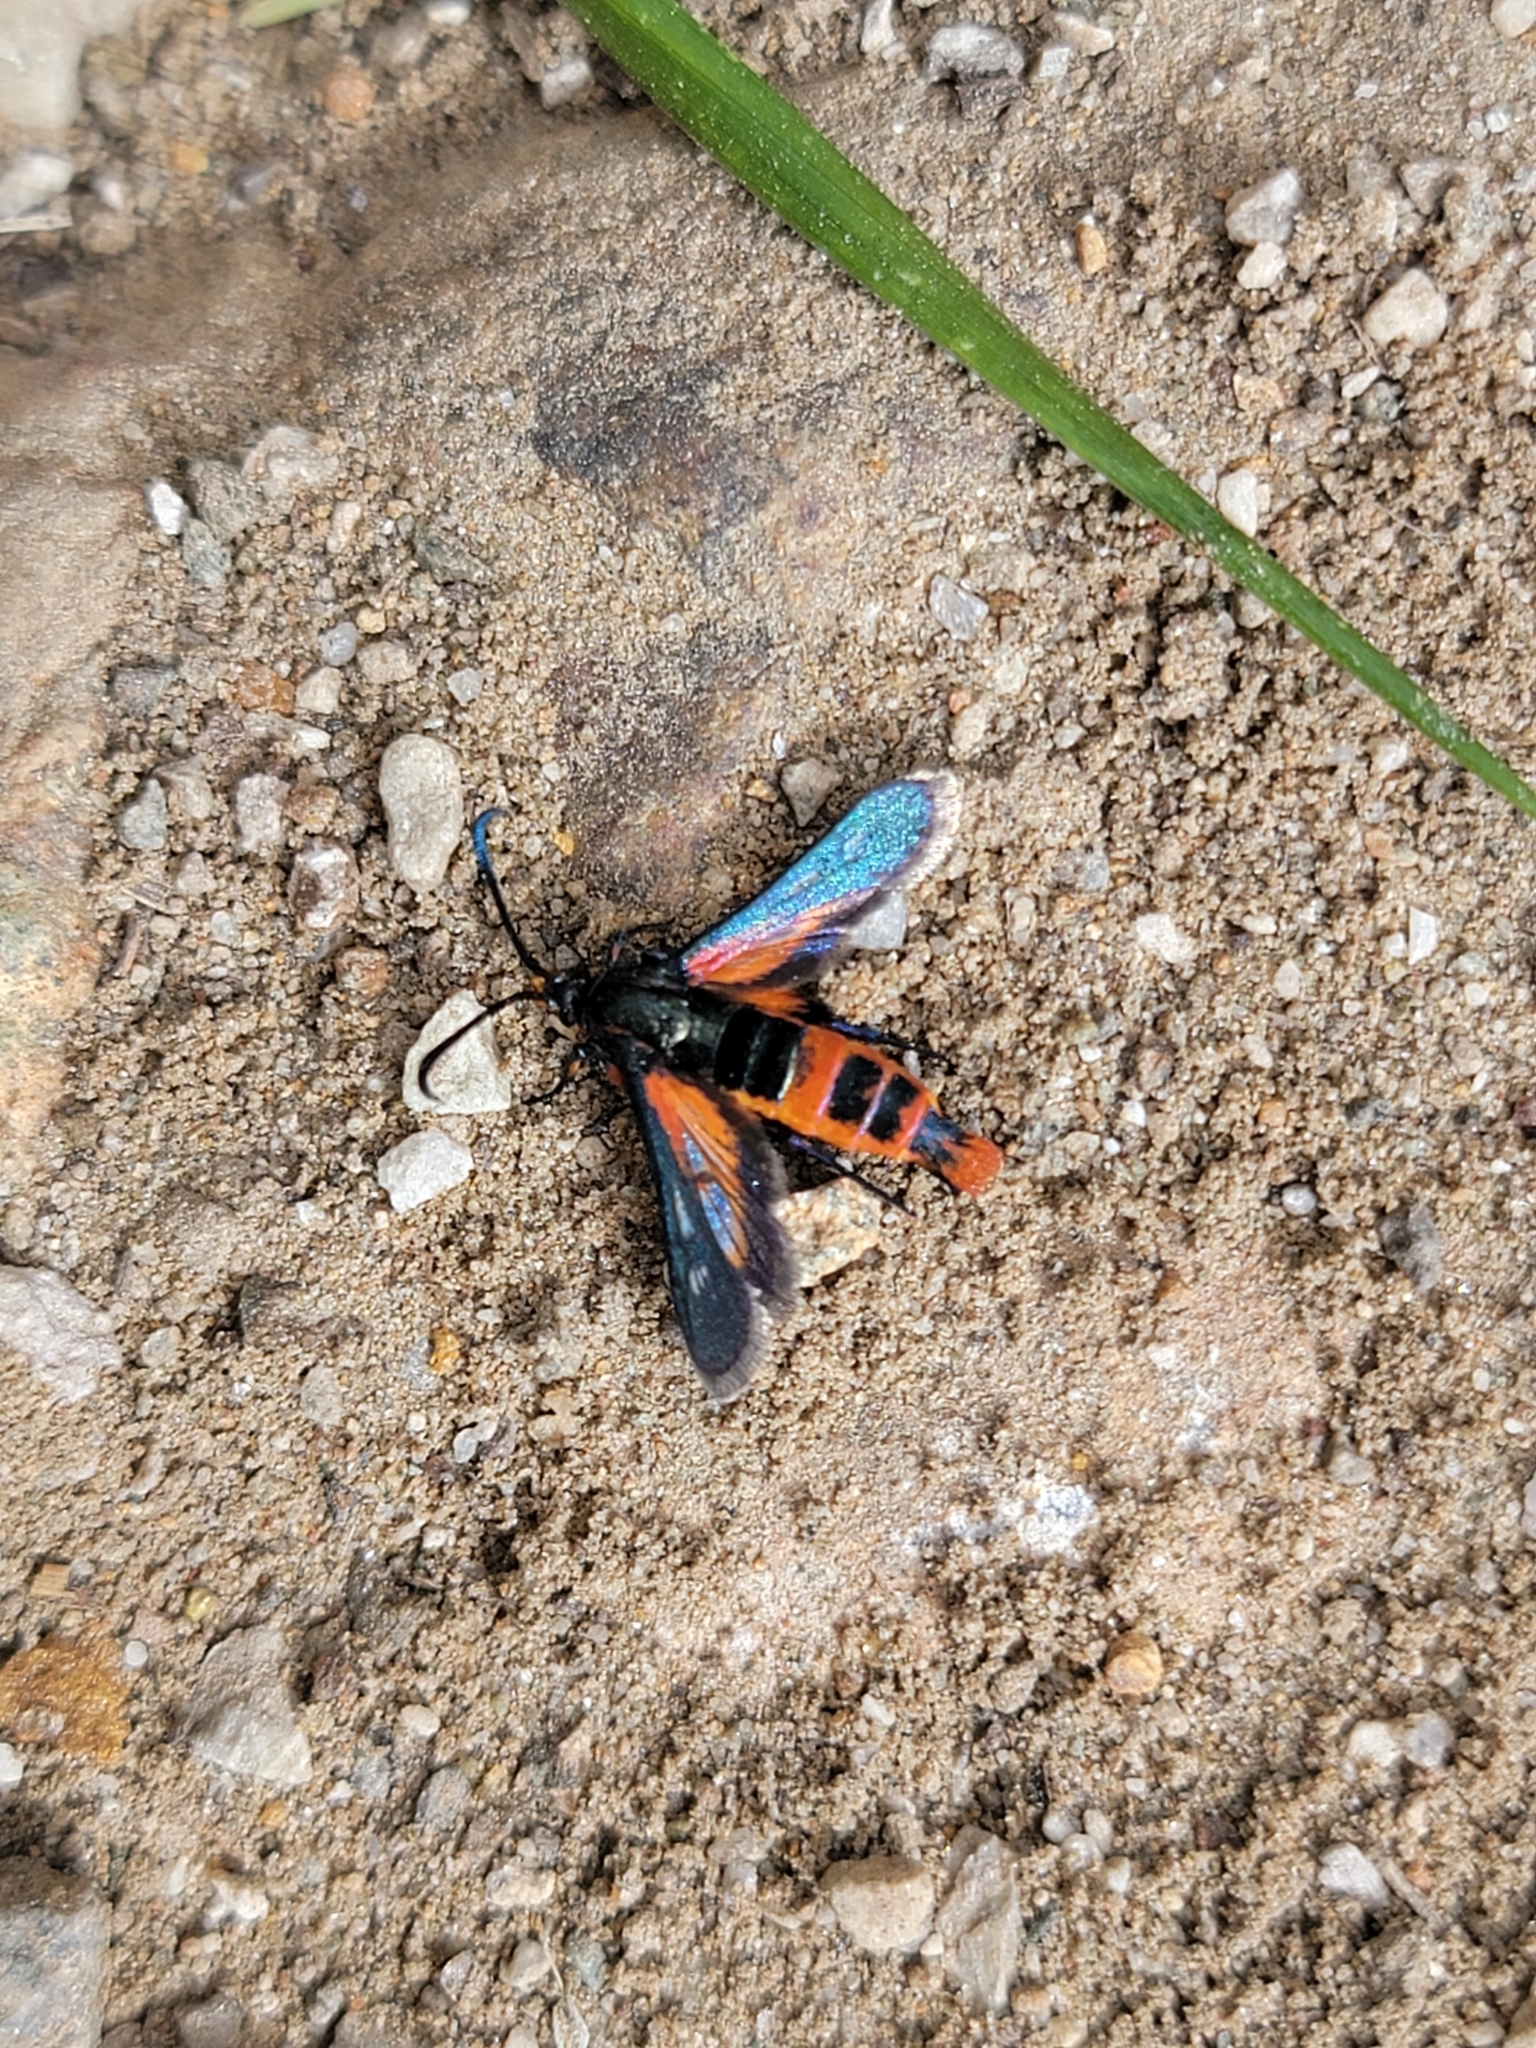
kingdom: Animalia
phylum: Arthropoda
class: Insecta
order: Lepidoptera
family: Sesiidae
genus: Synanthedon
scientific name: Synanthedon polygoni
